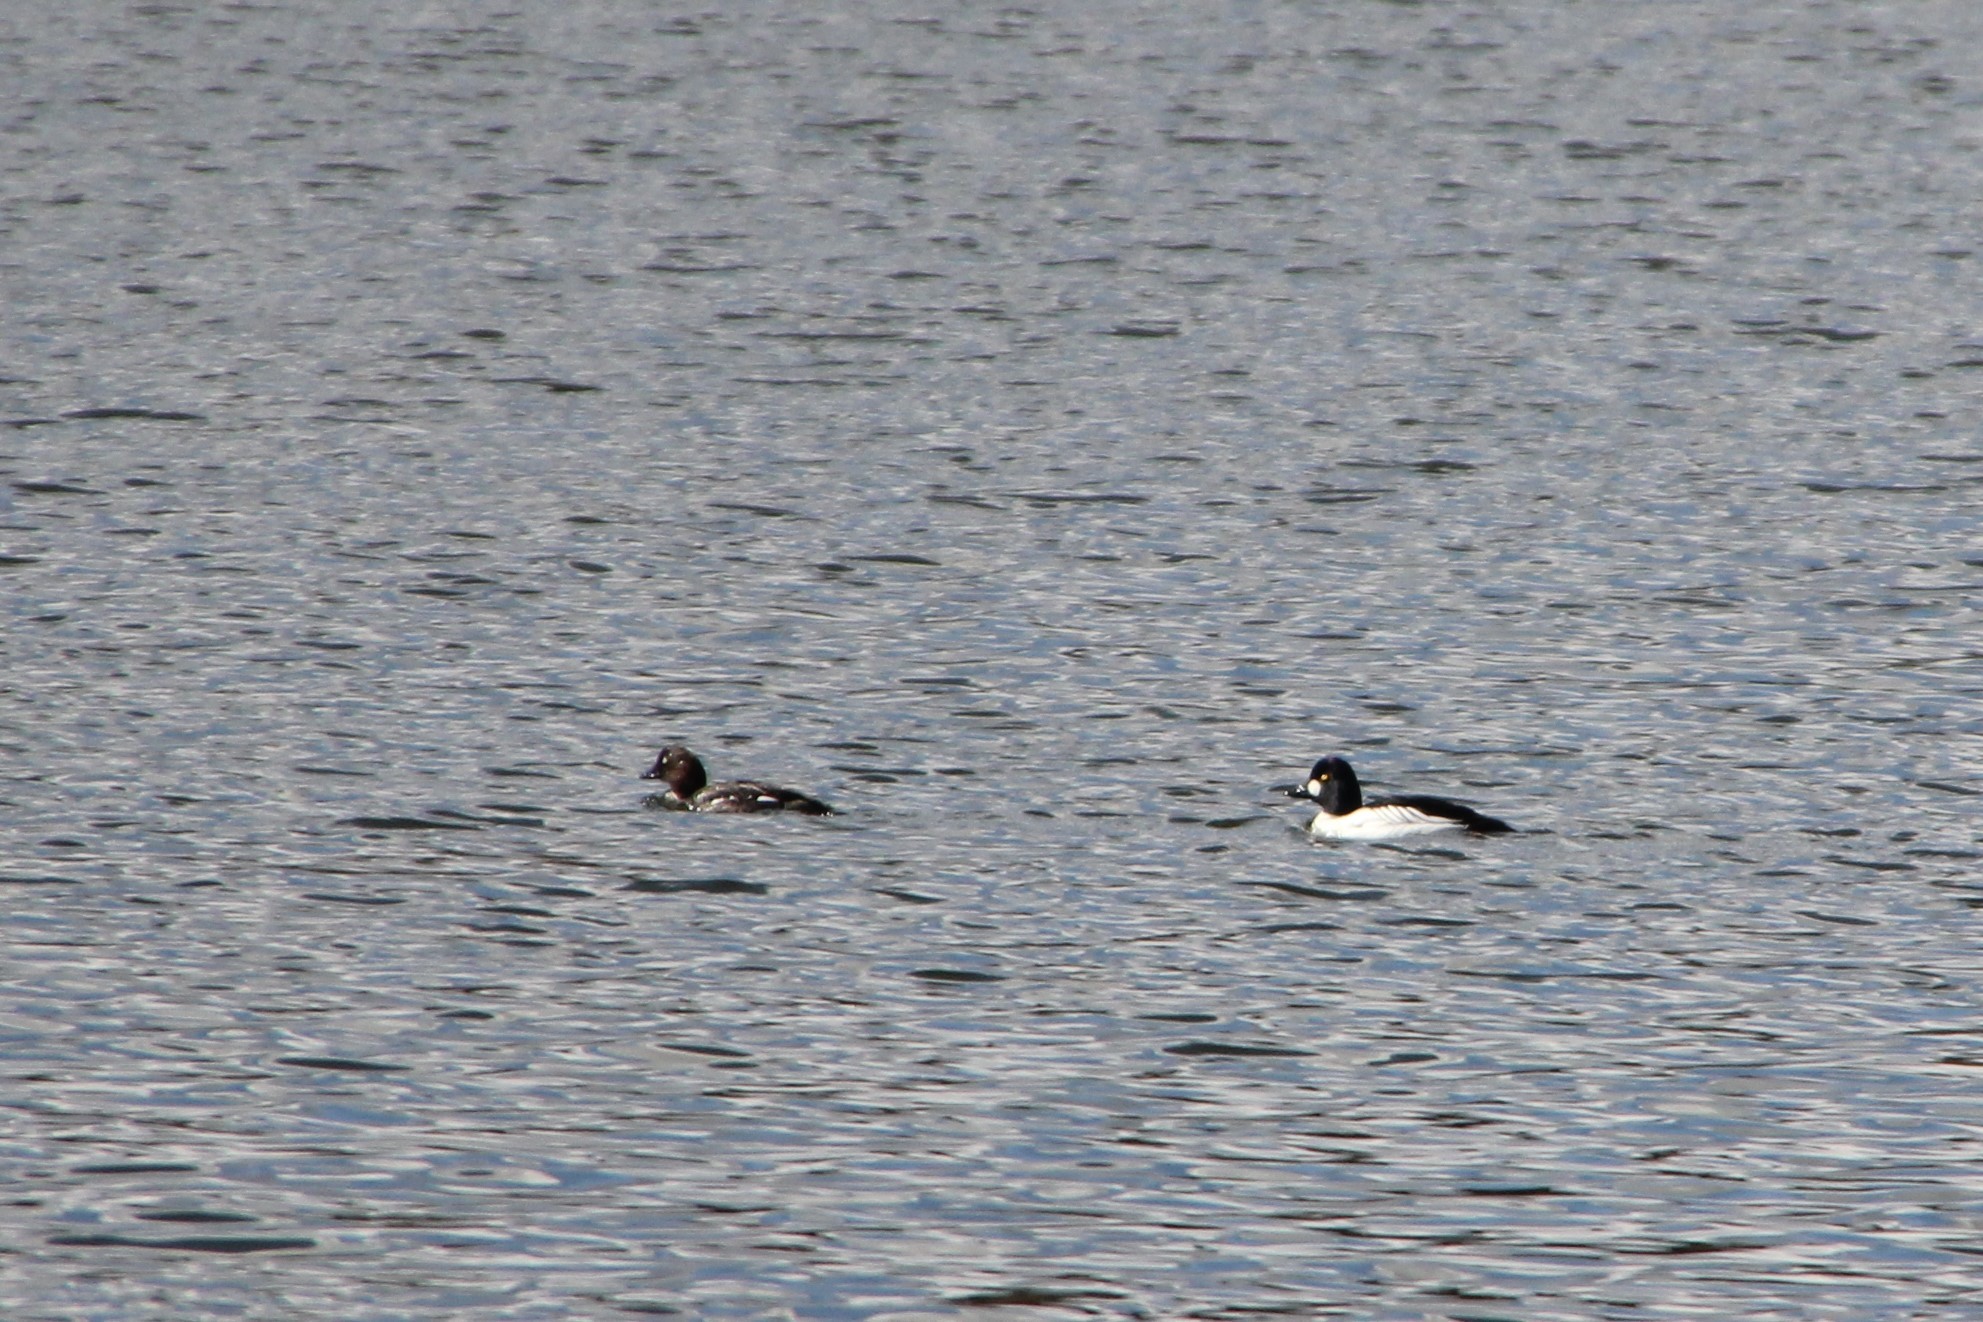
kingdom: Animalia
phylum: Chordata
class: Aves
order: Anseriformes
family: Anatidae
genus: Bucephala
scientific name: Bucephala clangula
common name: Common goldeneye
